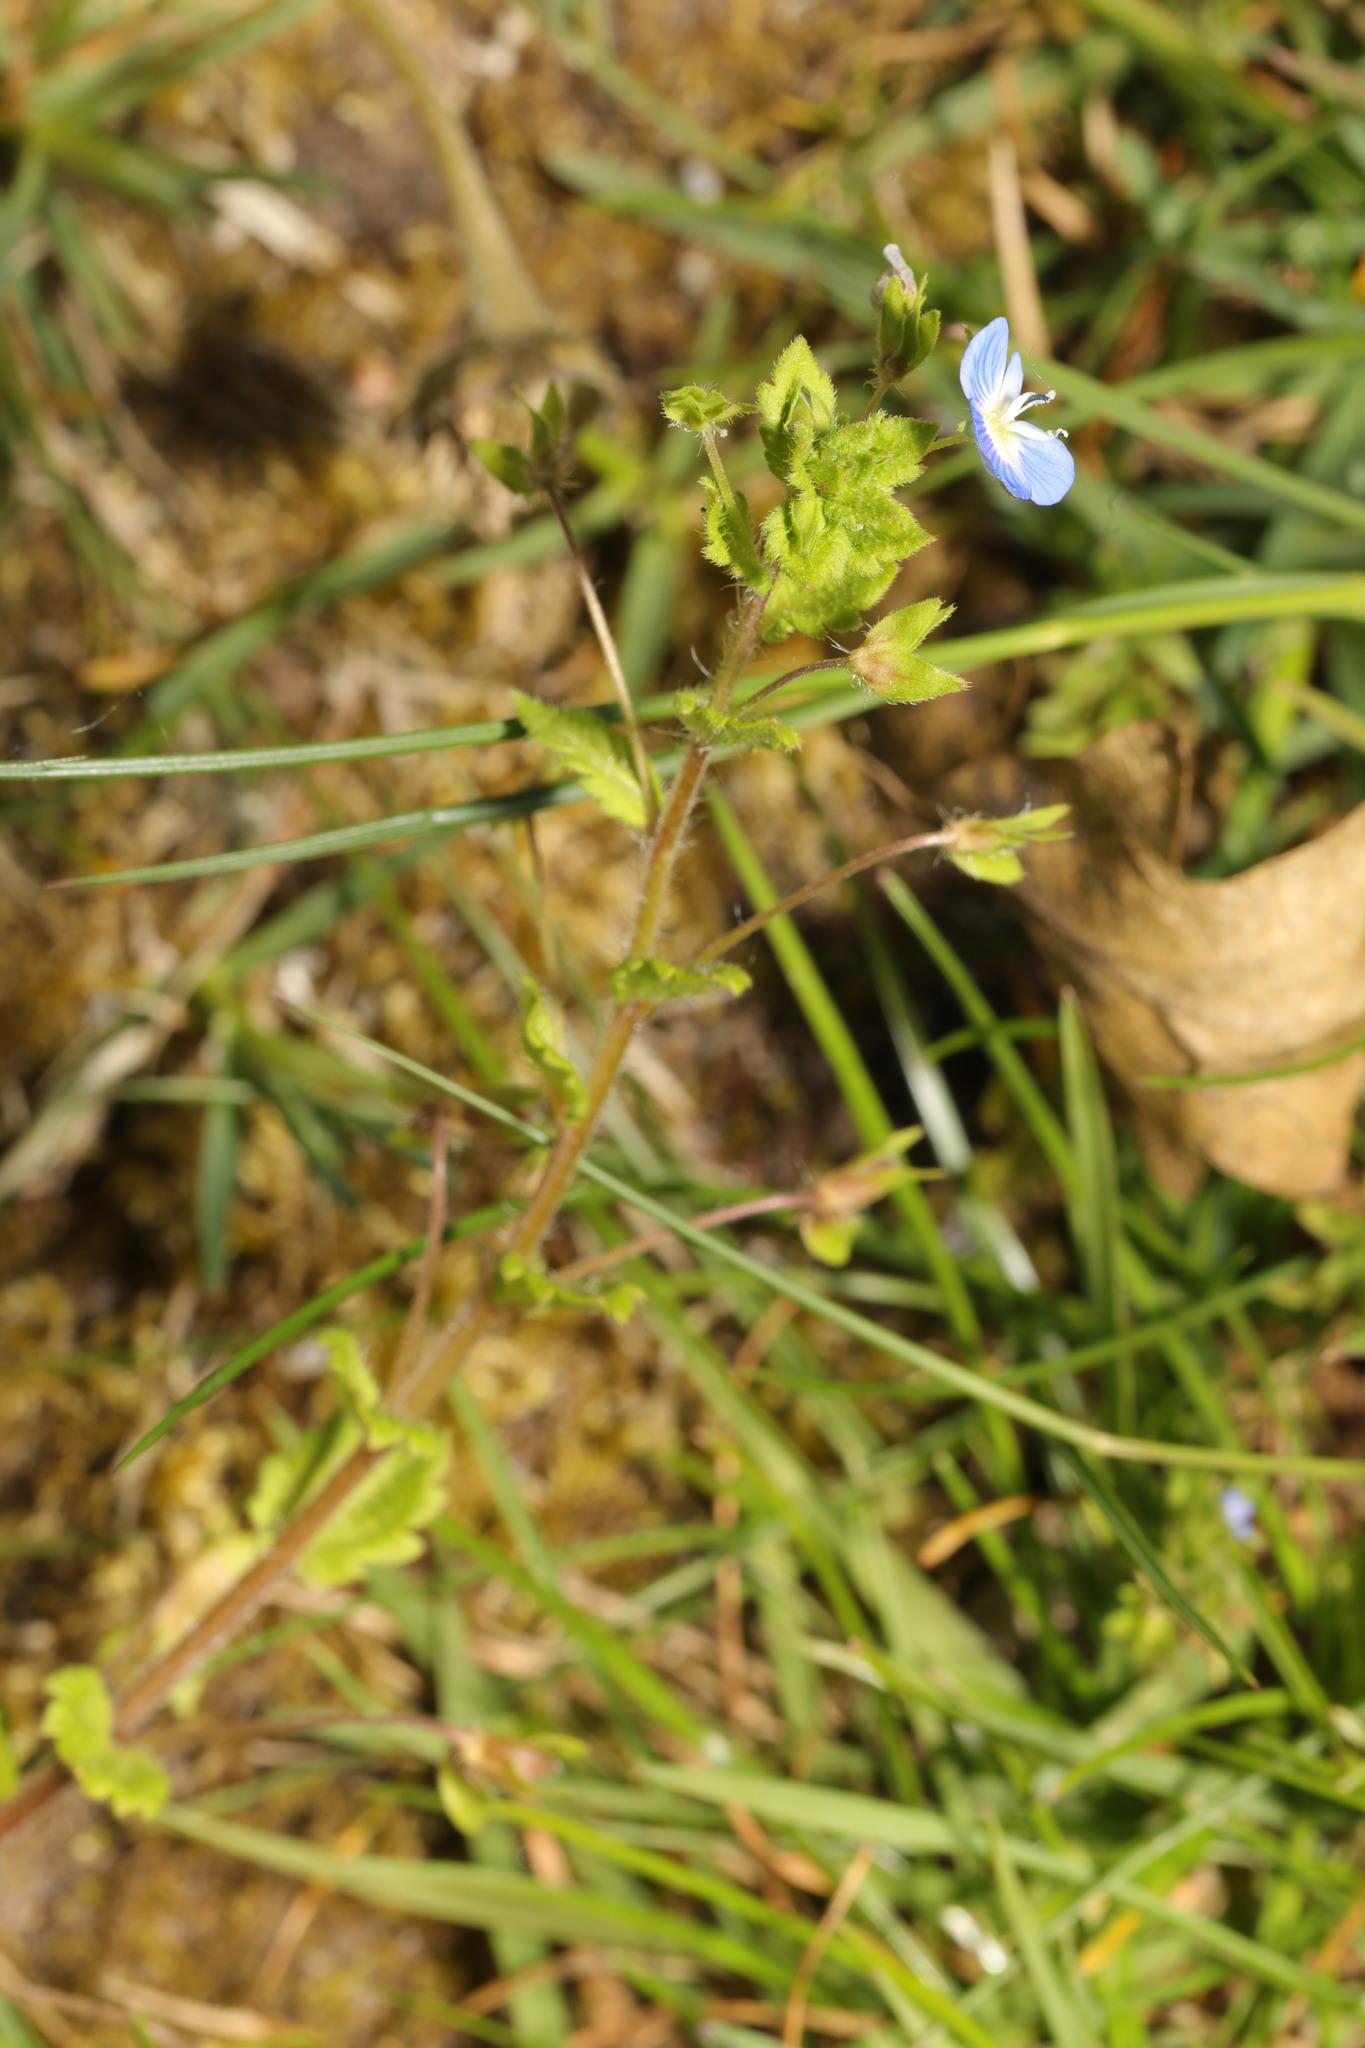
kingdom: Plantae
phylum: Tracheophyta
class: Magnoliopsida
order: Lamiales
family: Plantaginaceae
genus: Veronica
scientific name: Veronica persica
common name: Common field-speedwell
